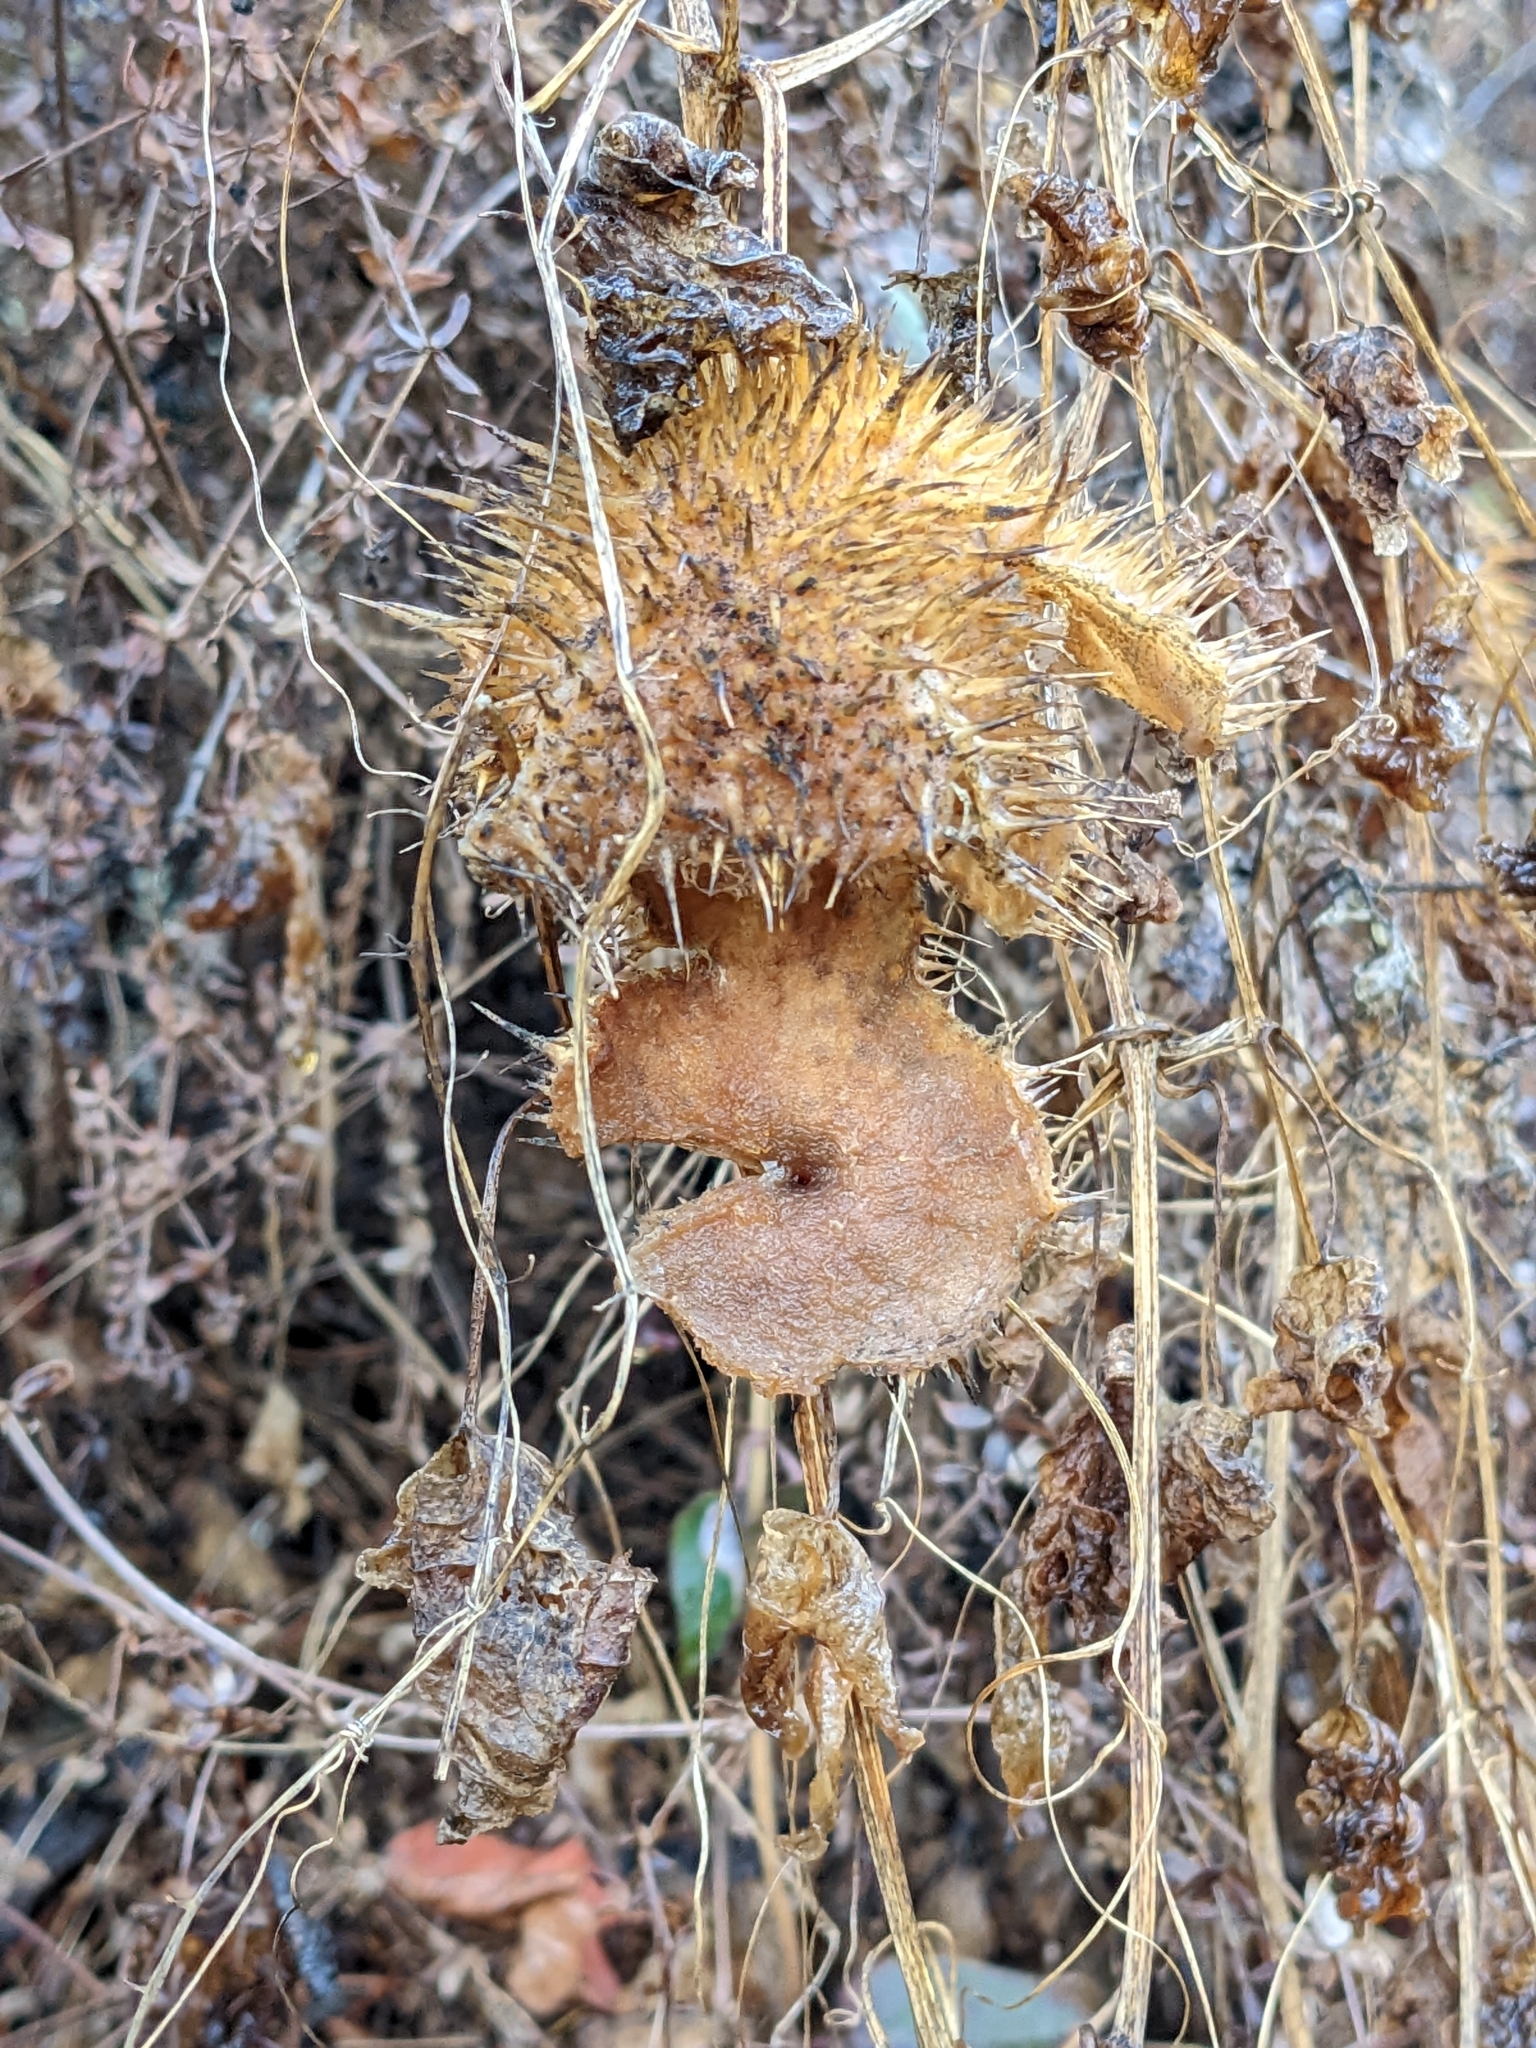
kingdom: Plantae
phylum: Tracheophyta
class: Magnoliopsida
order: Cucurbitales
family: Cucurbitaceae
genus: Marah
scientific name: Marah fabacea
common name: California manroot
